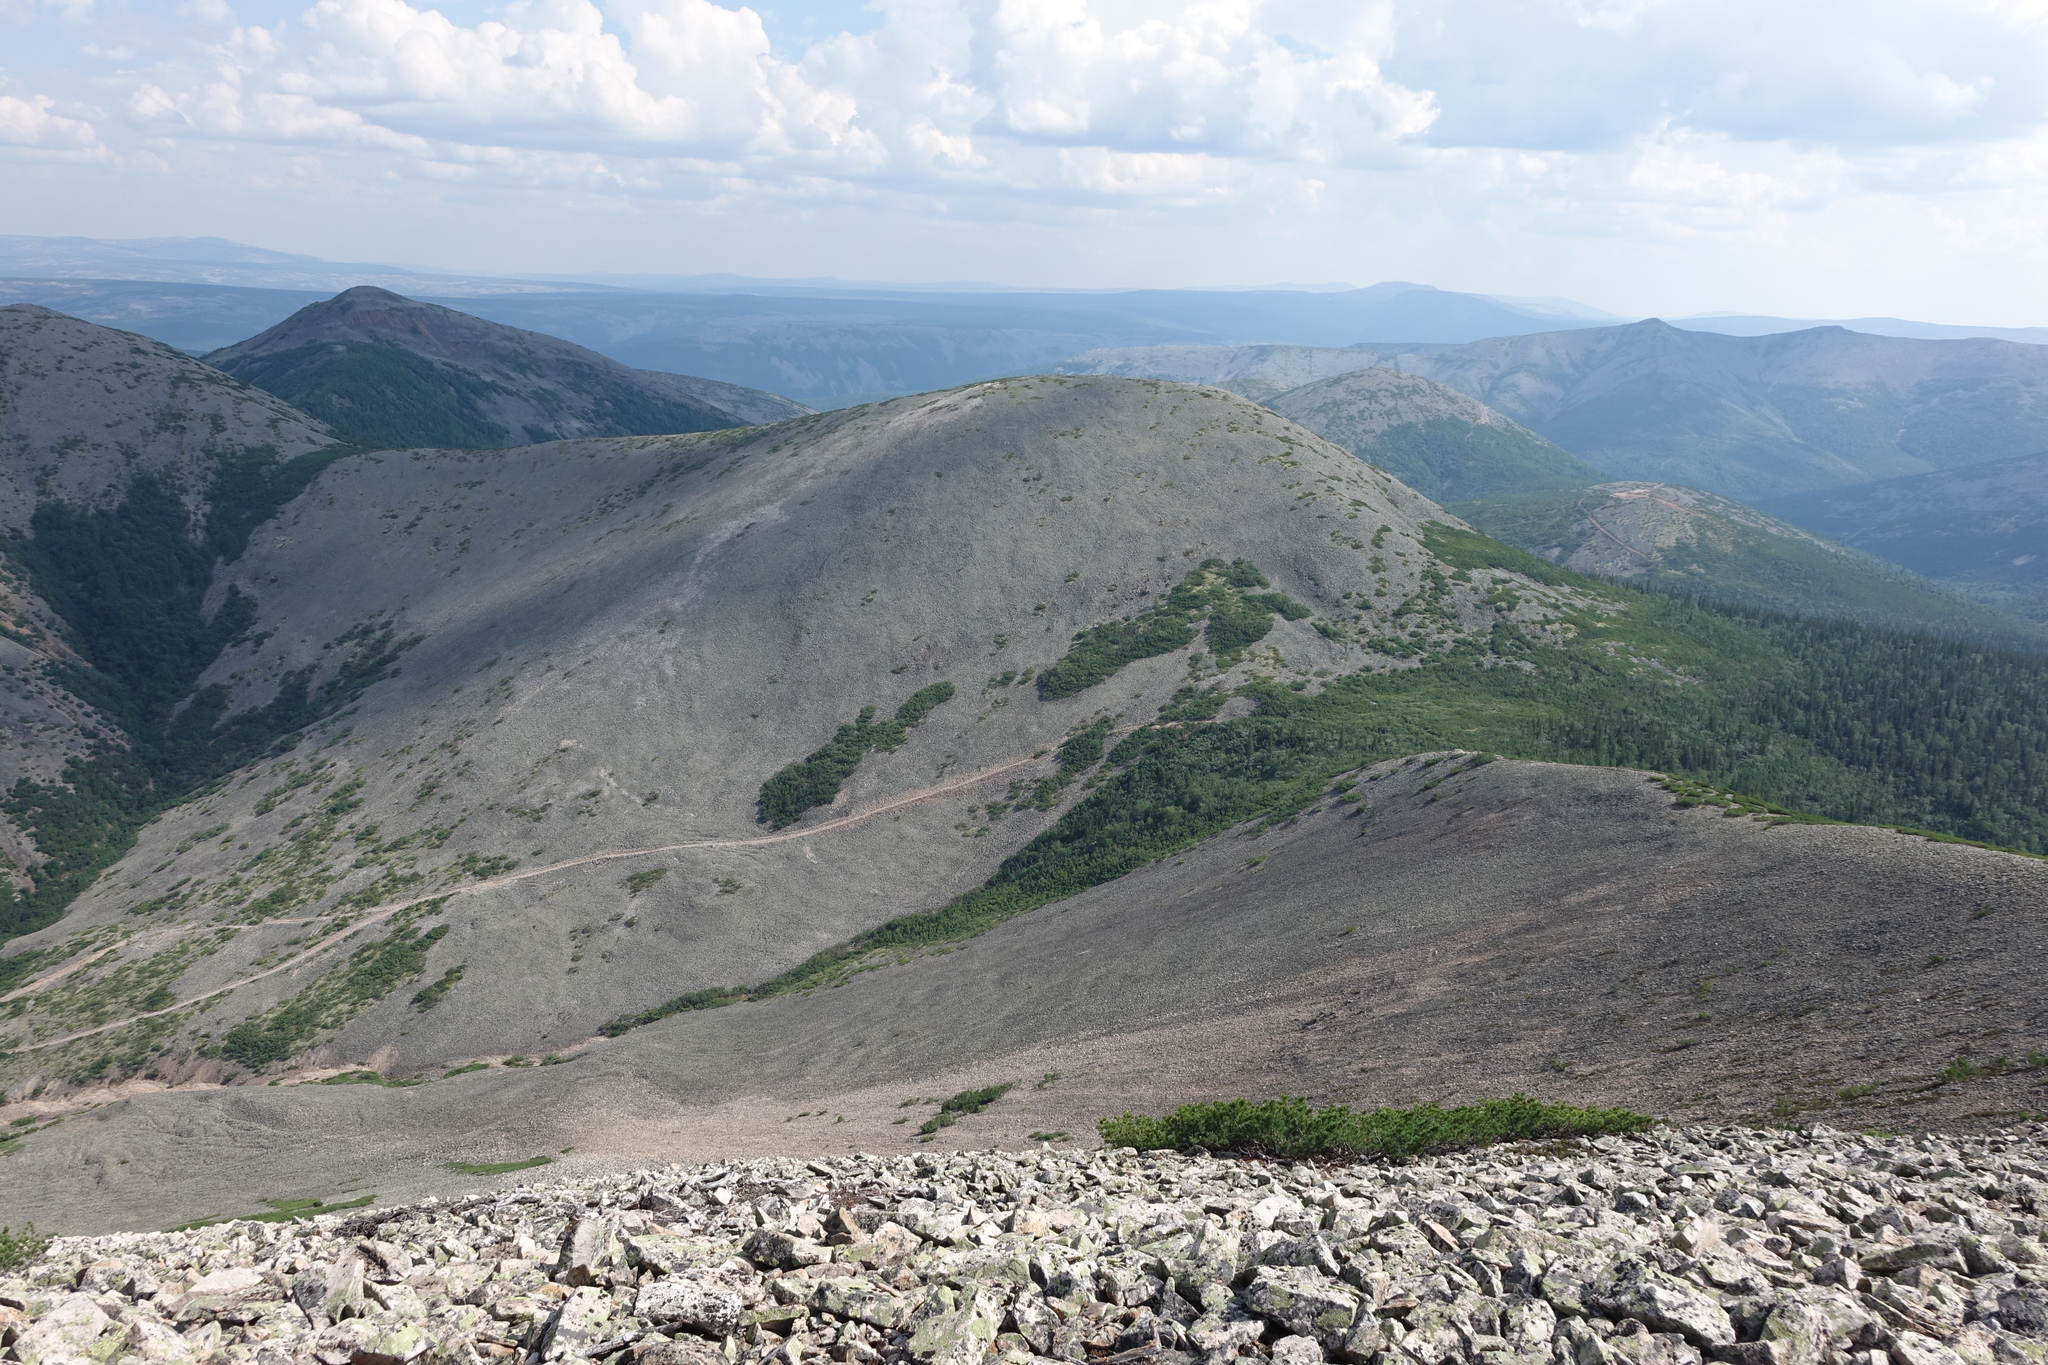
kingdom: Plantae
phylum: Tracheophyta
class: Pinopsida
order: Pinales
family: Pinaceae
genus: Pinus
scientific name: Pinus pumila
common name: Dwarf siberian pine
